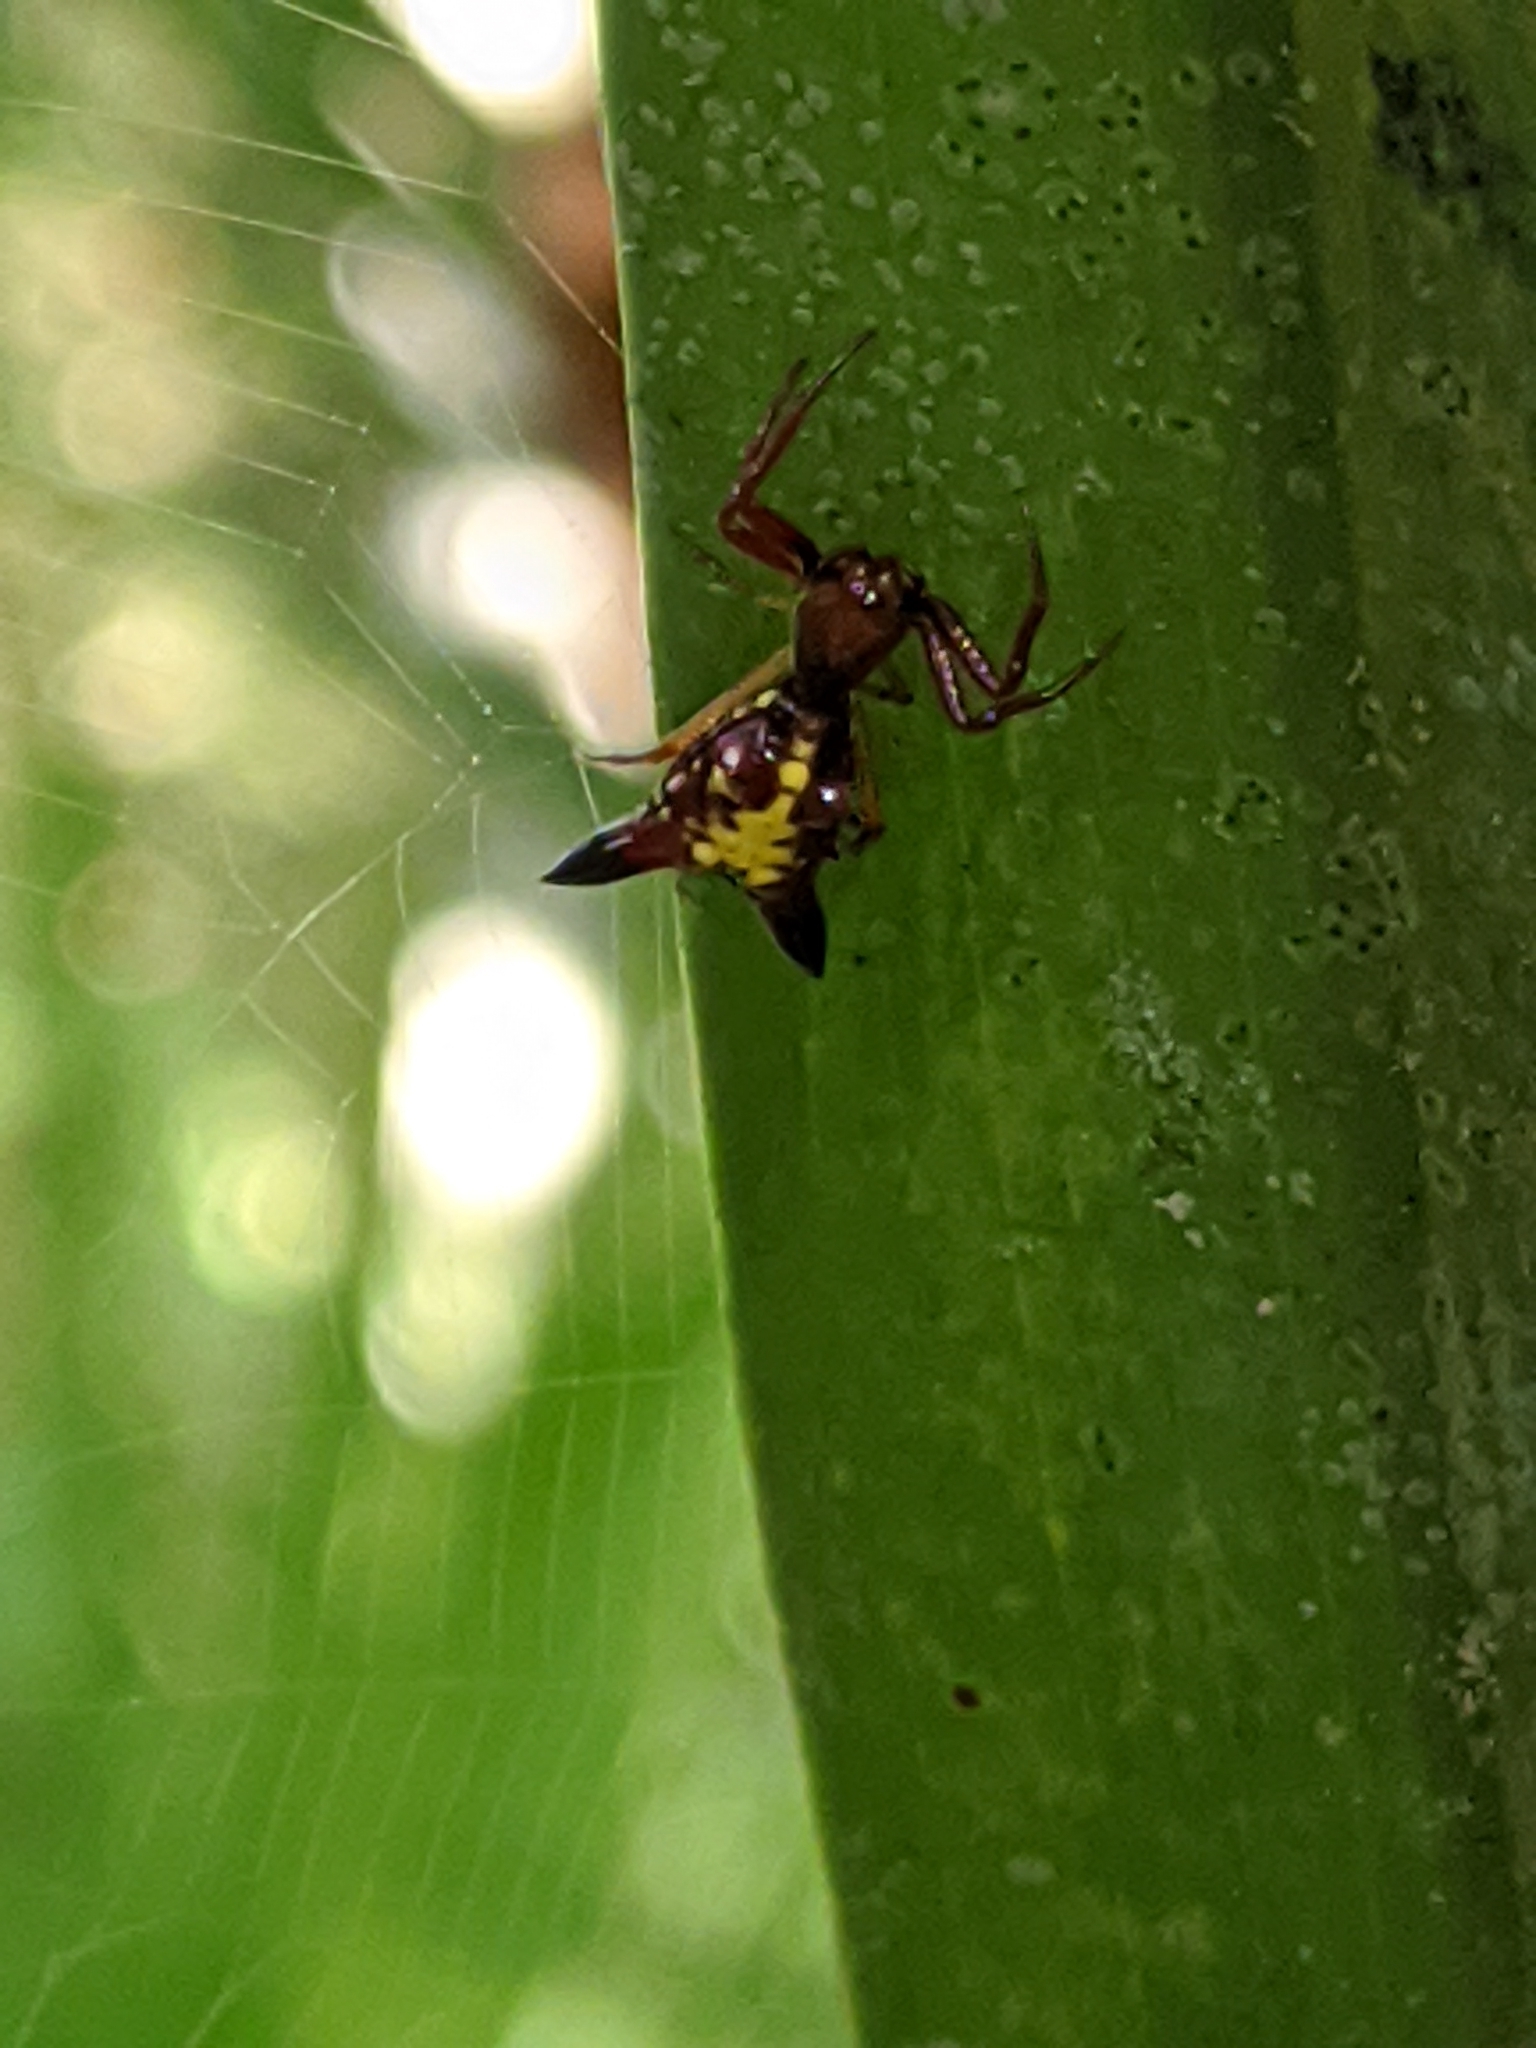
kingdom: Animalia
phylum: Arthropoda
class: Arachnida
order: Araneae
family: Araneidae
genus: Micrathena
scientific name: Micrathena sagittata
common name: Orb weavers
